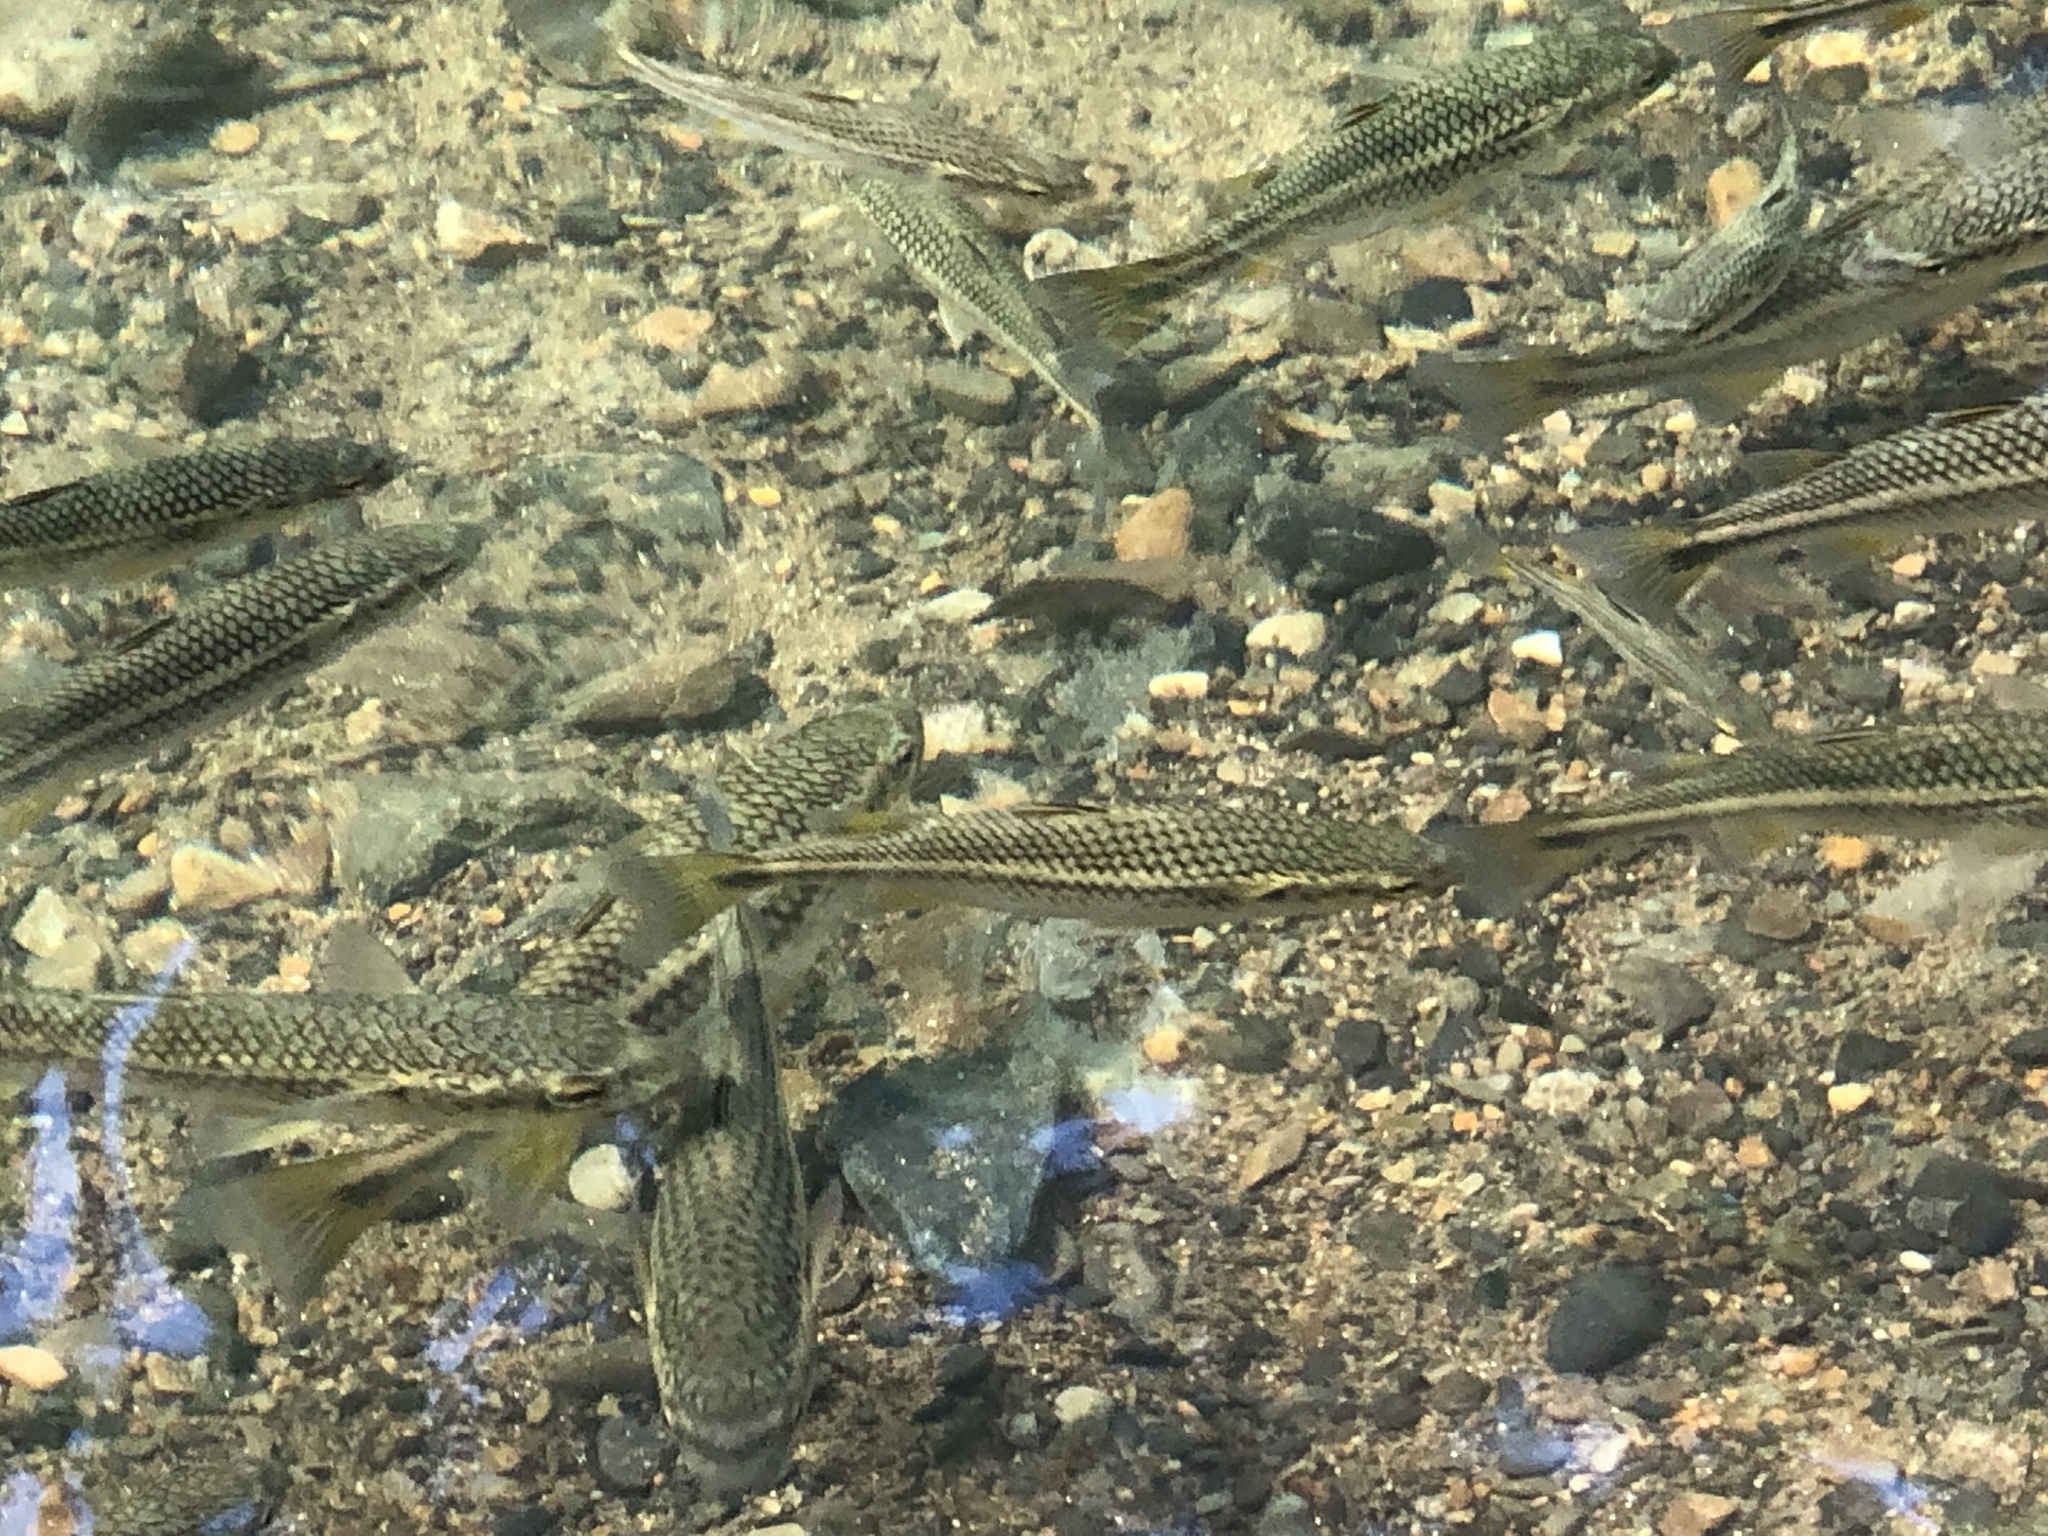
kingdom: Animalia
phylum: Chordata
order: Mugiliformes
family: Mugilidae
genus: Dajaus
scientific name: Dajaus monticola
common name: Mountain mullet
